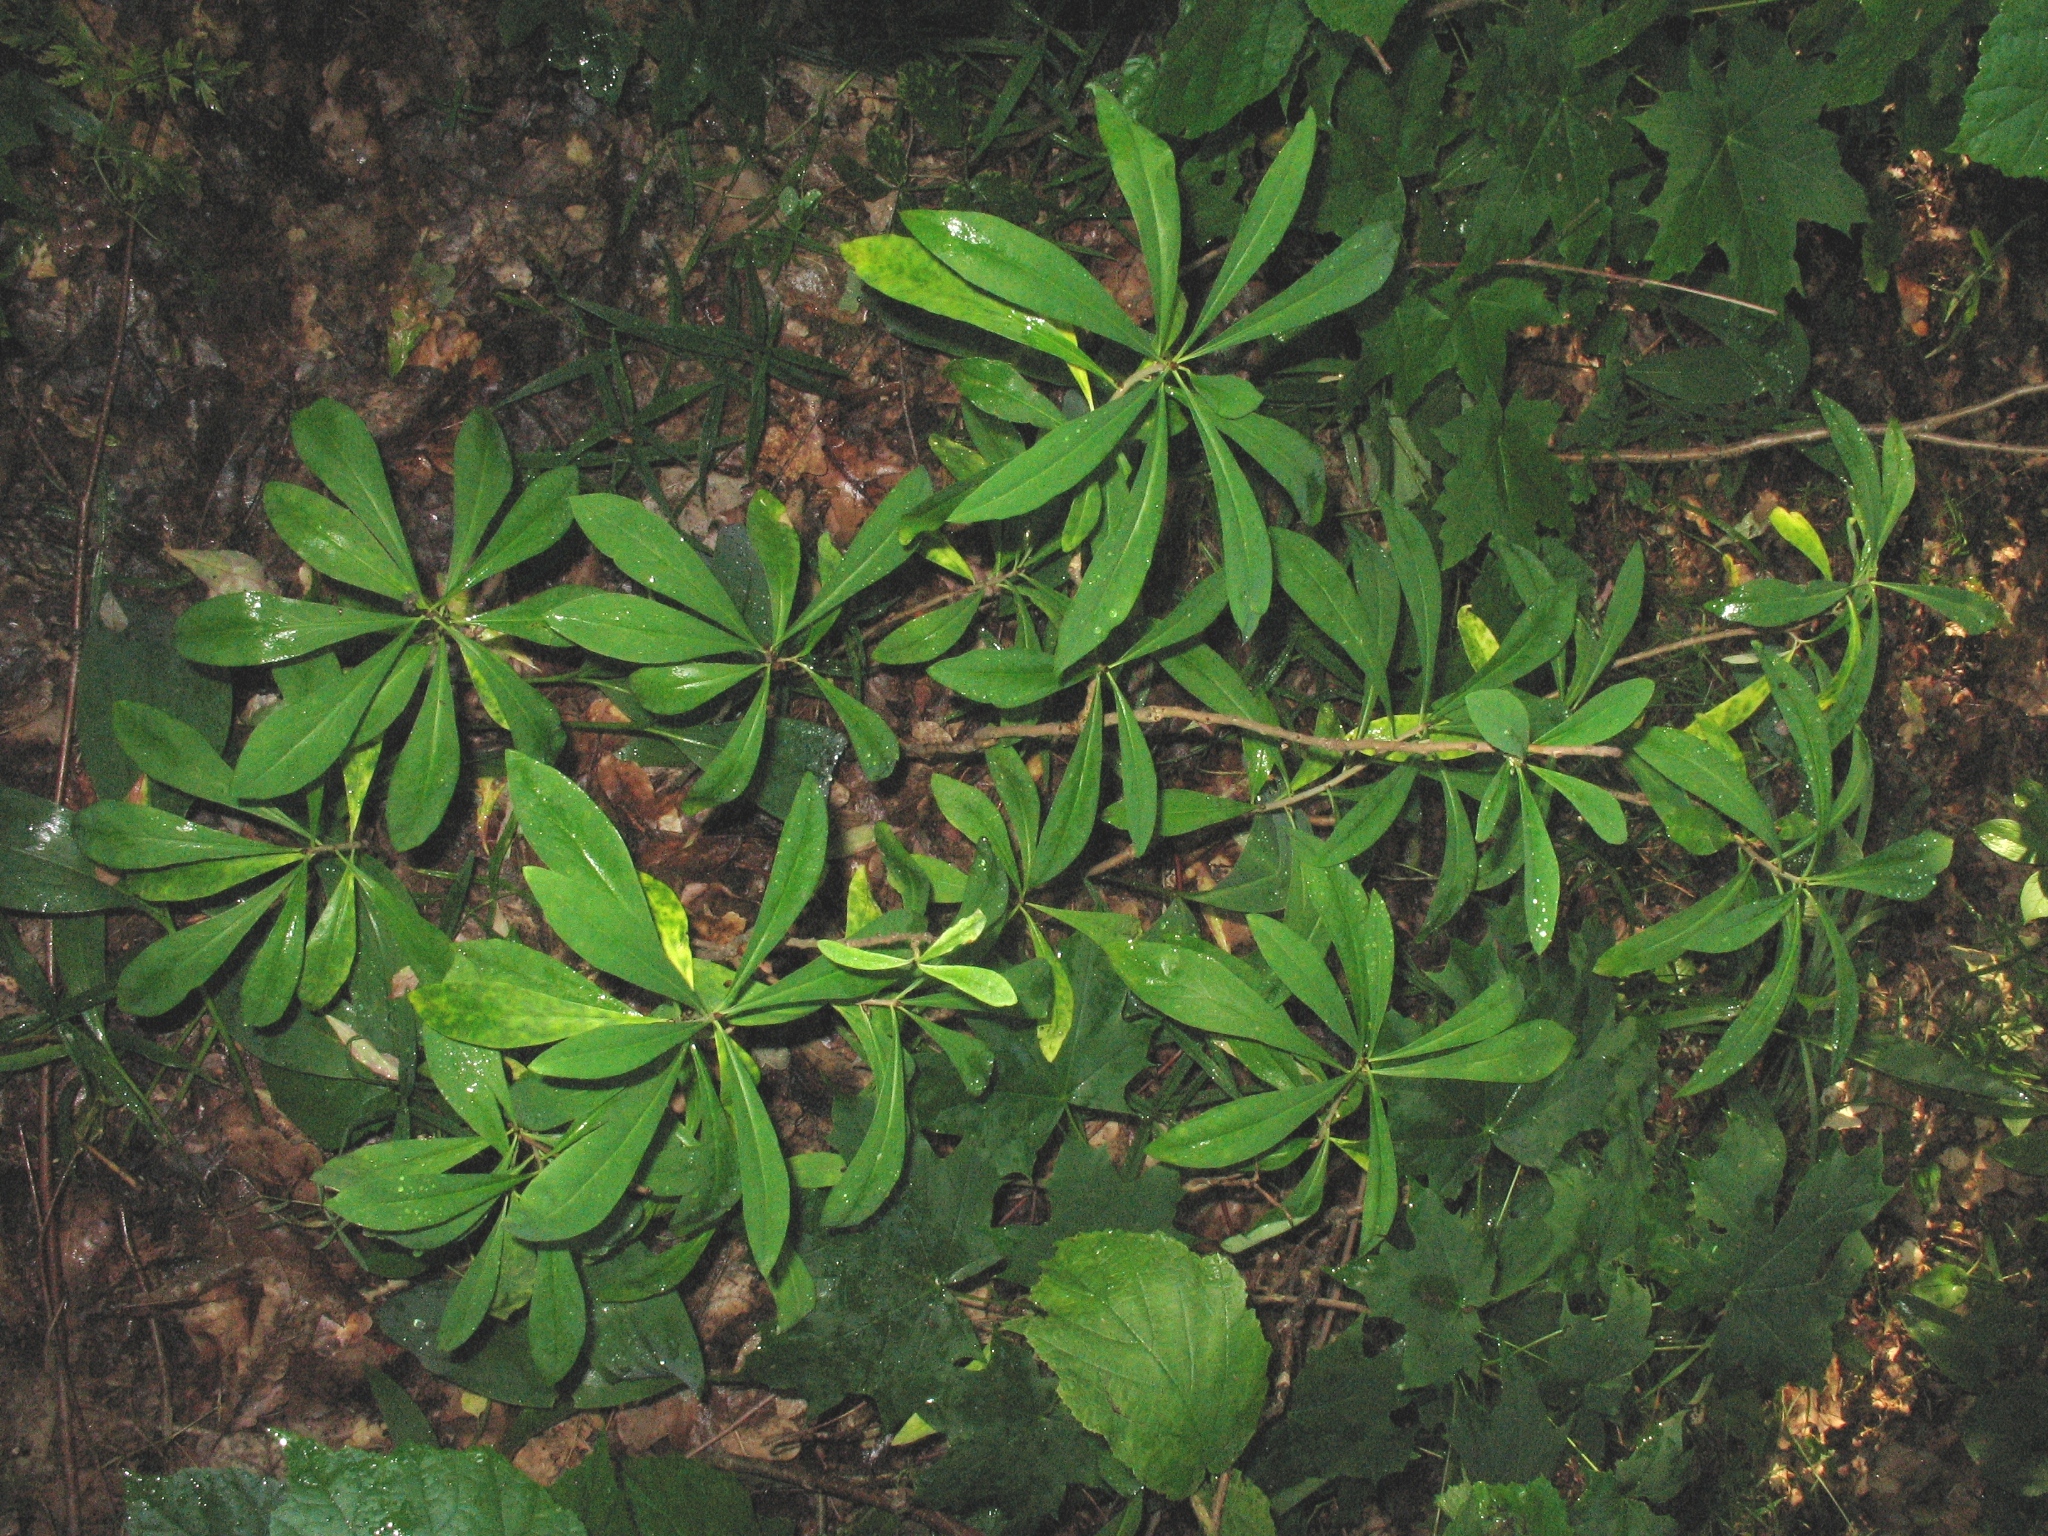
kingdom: Plantae
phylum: Tracheophyta
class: Magnoliopsida
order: Malvales
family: Thymelaeaceae
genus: Daphne
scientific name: Daphne mezereum
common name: Mezereon
